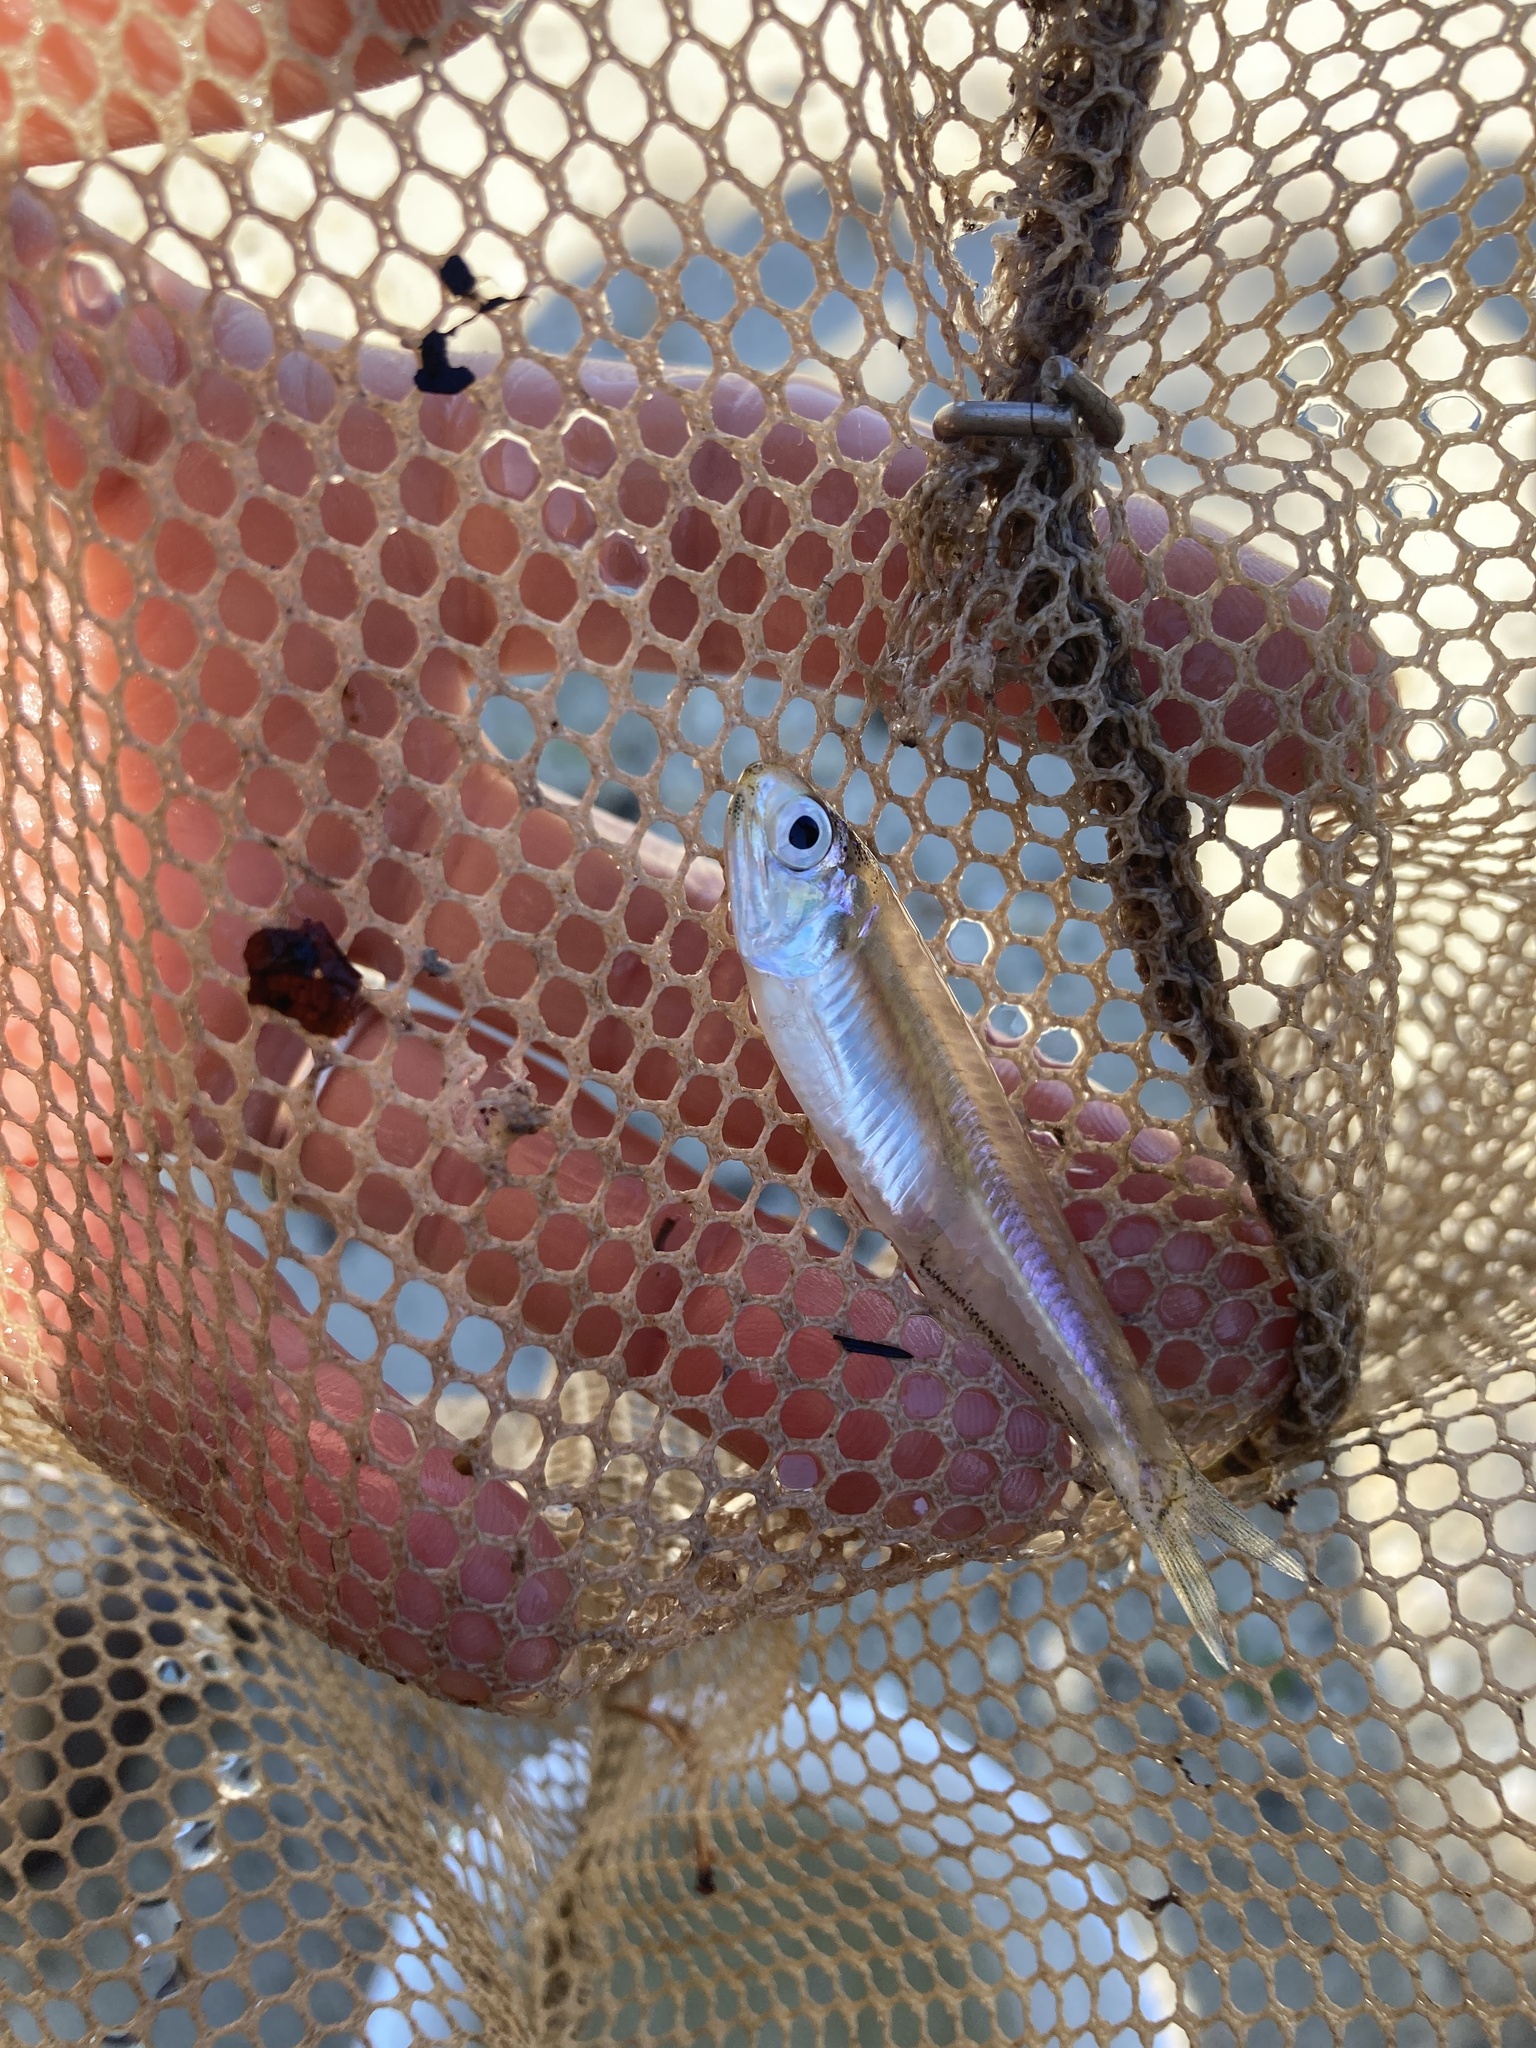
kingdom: Animalia
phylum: Chordata
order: Clupeiformes
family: Engraulidae
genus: Anchoa
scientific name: Anchoa mitchilli
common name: Bay anchovy
